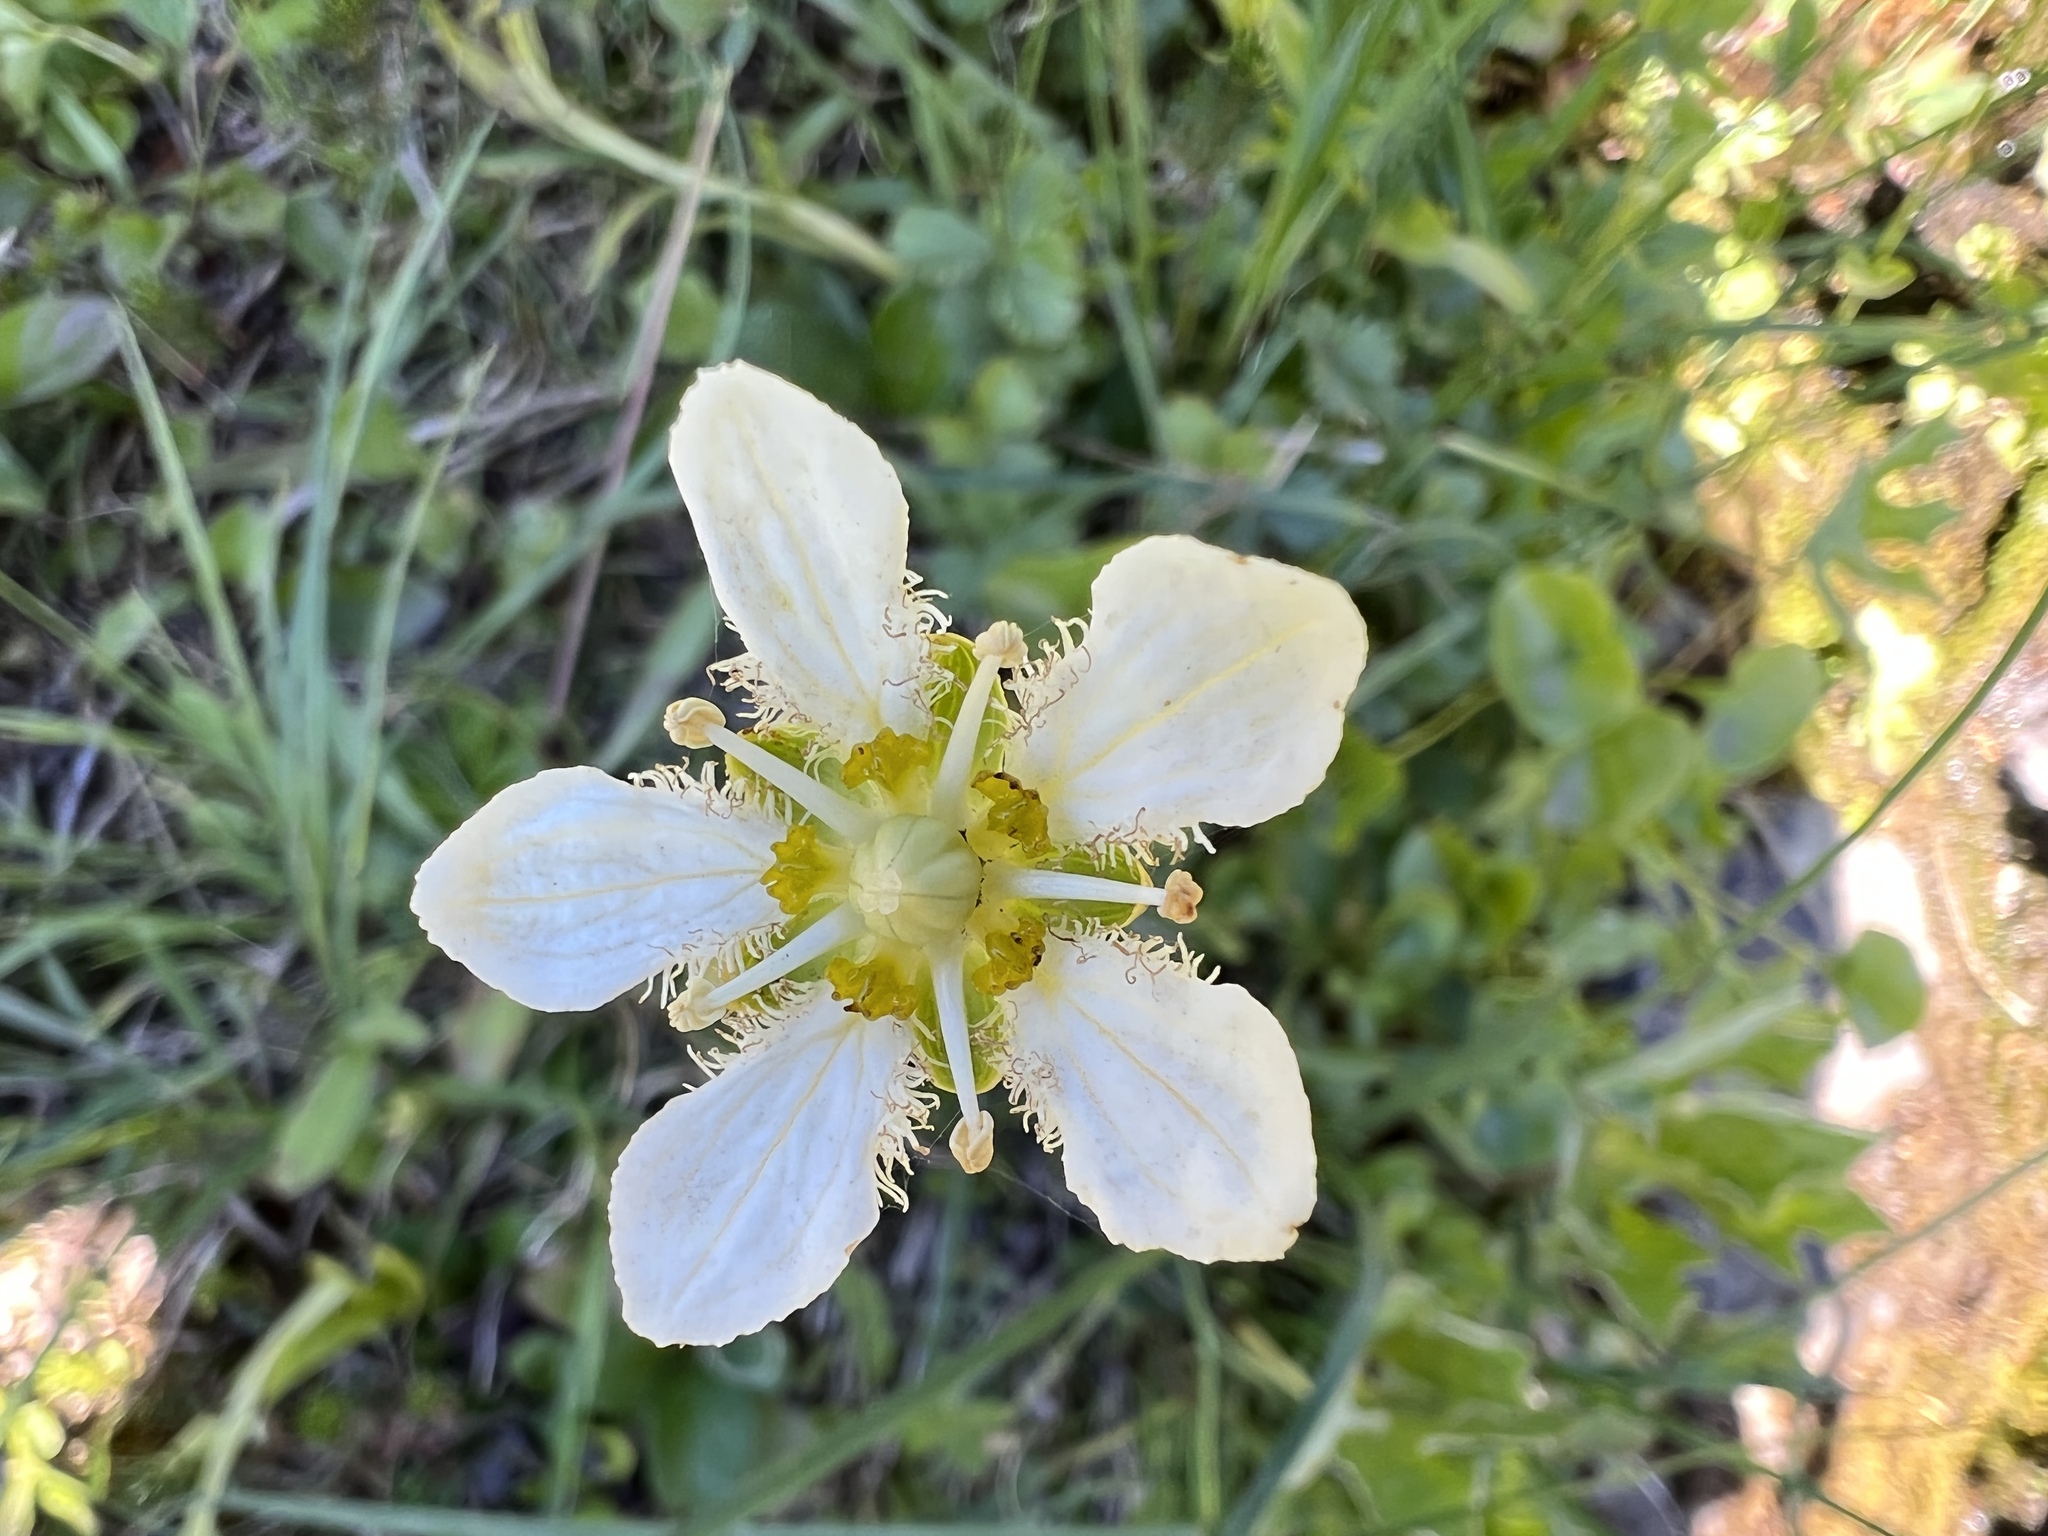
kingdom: Plantae
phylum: Tracheophyta
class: Magnoliopsida
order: Celastrales
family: Parnassiaceae
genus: Parnassia
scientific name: Parnassia fimbriata
